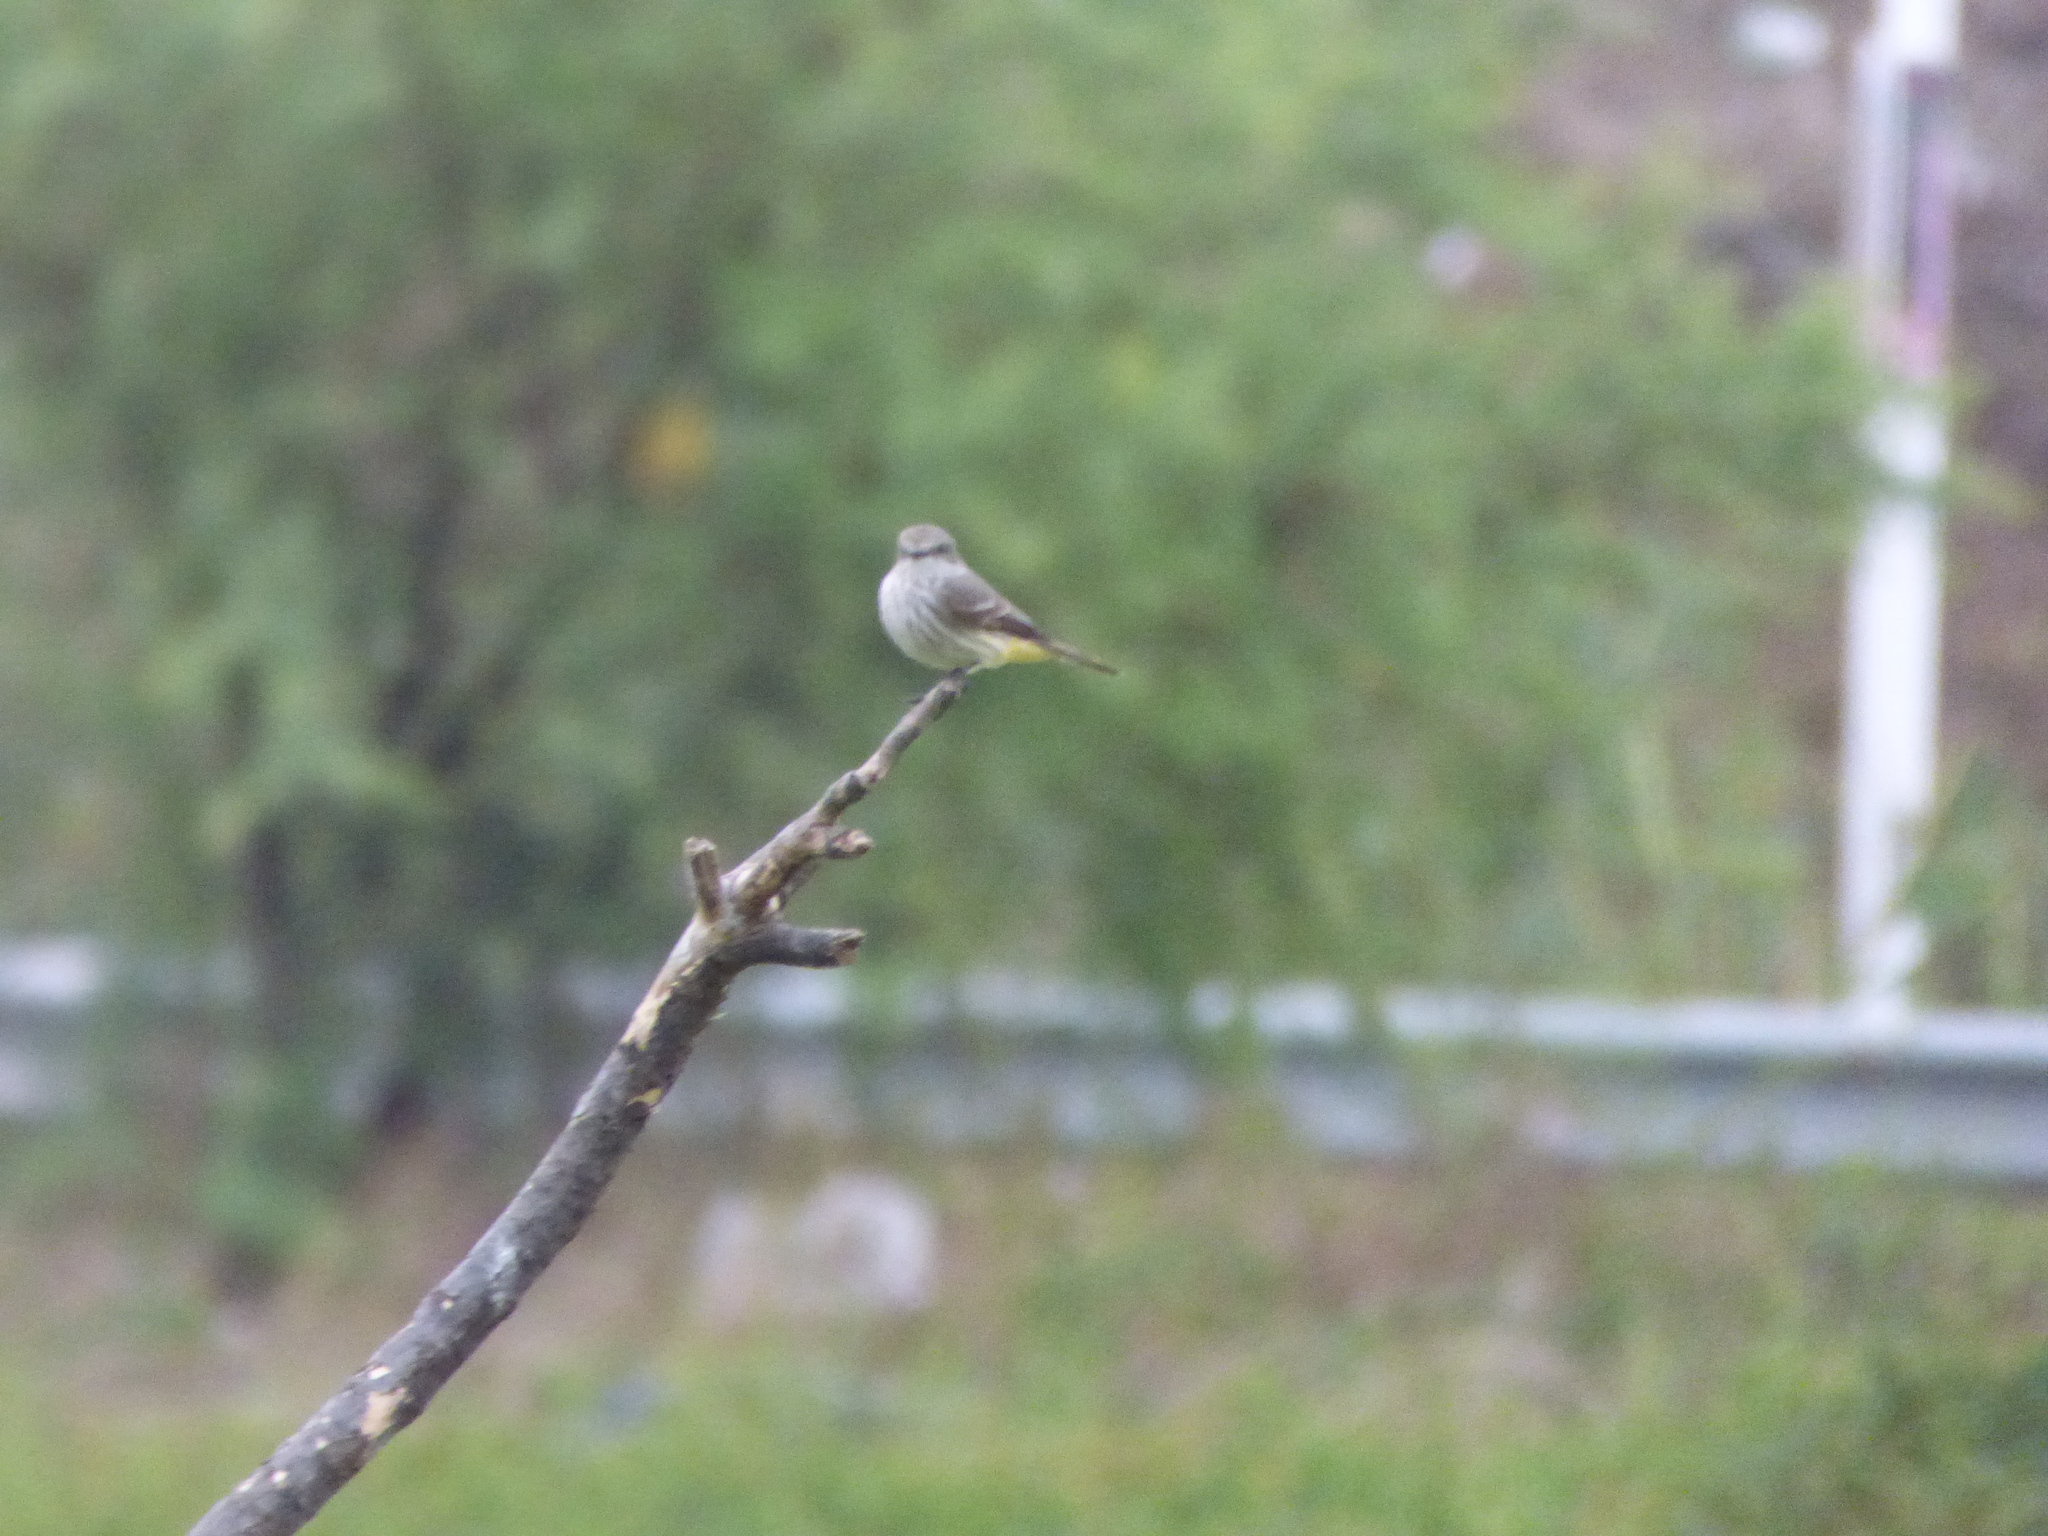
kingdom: Animalia
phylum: Chordata
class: Aves
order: Passeriformes
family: Tyrannidae
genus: Pyrocephalus
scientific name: Pyrocephalus rubinus
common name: Vermilion flycatcher
